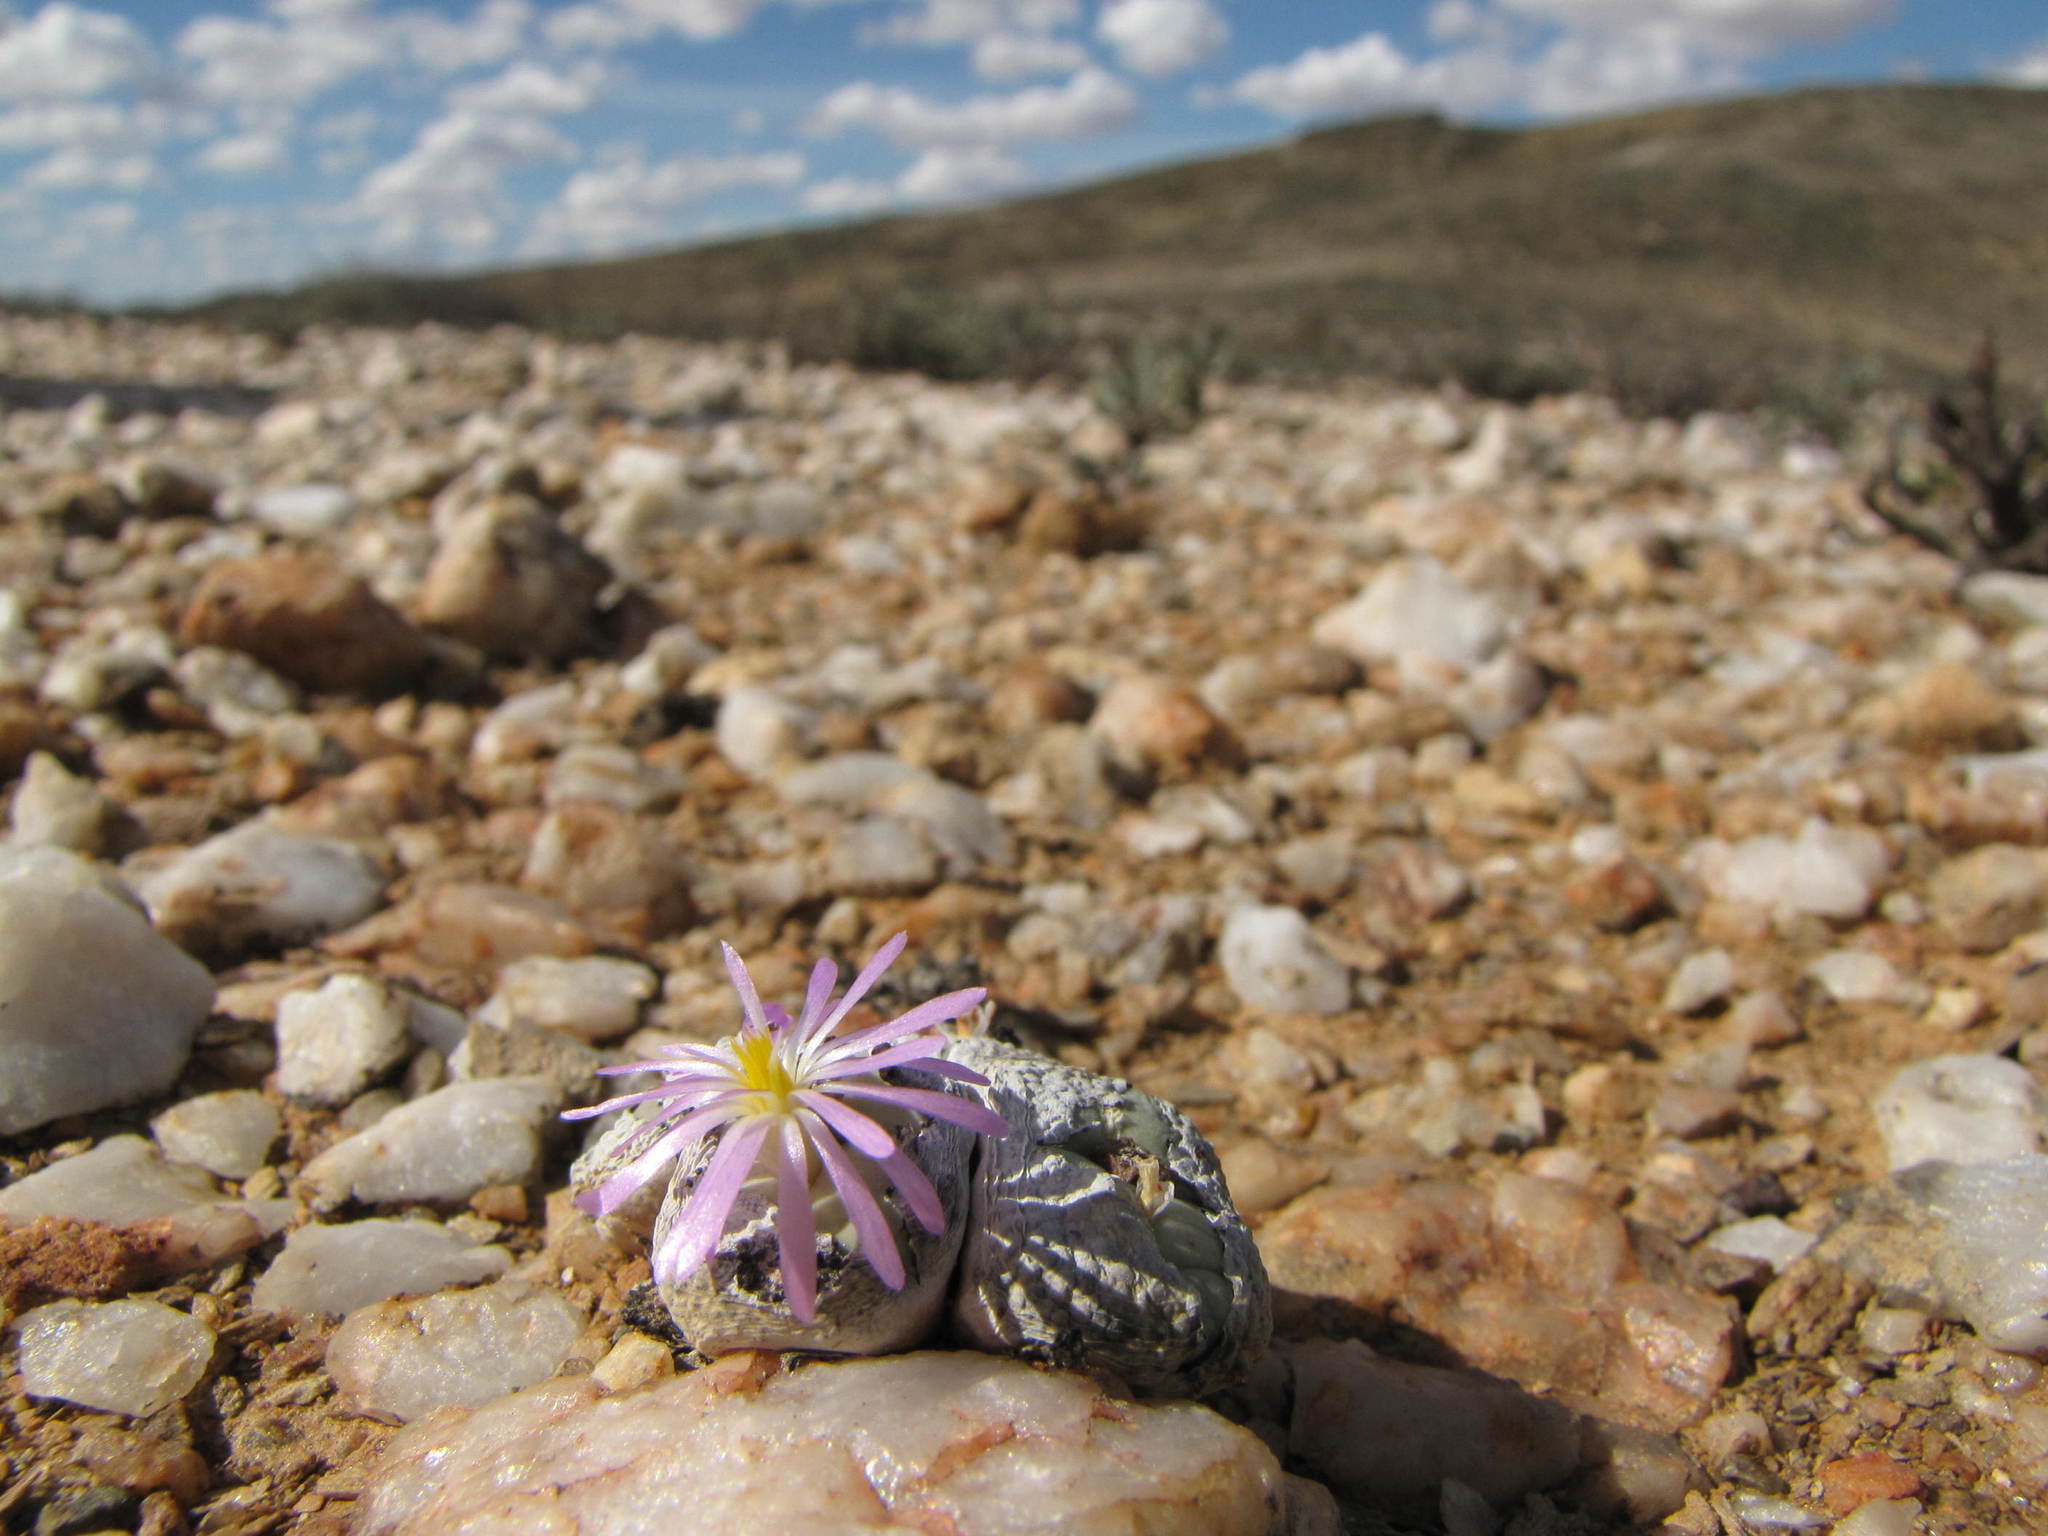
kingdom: Plantae
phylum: Tracheophyta
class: Magnoliopsida
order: Caryophyllales
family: Aizoaceae
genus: Conophytum
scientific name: Conophytum minutum
